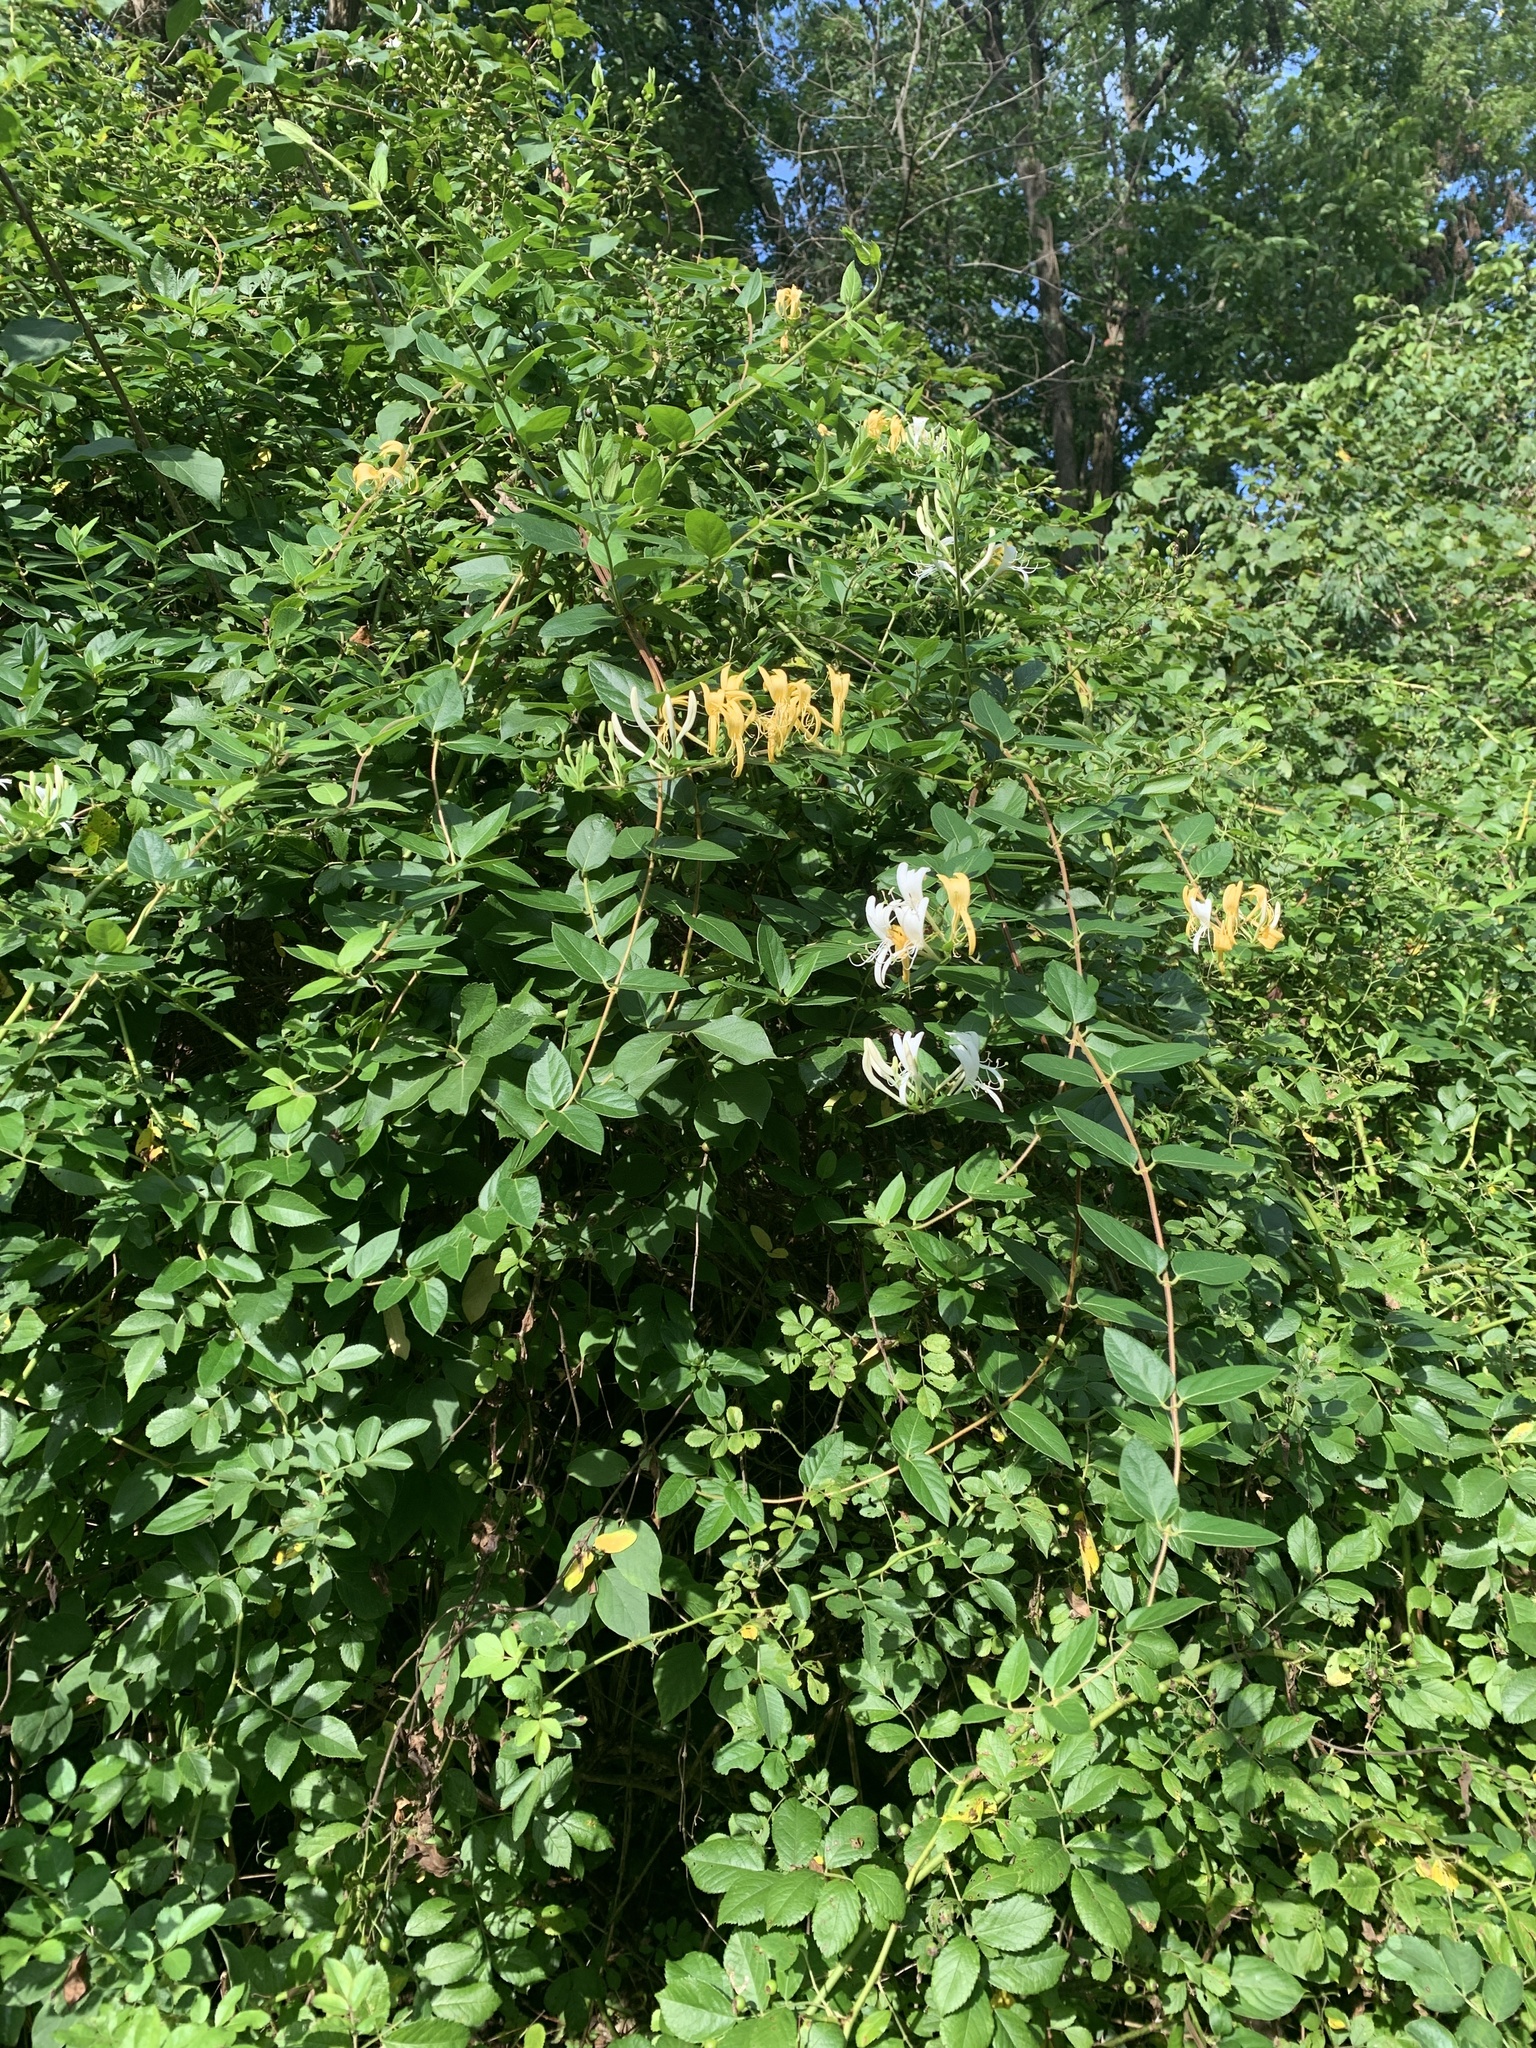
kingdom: Plantae
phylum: Tracheophyta
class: Magnoliopsida
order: Dipsacales
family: Caprifoliaceae
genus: Lonicera
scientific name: Lonicera japonica
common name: Japanese honeysuckle
